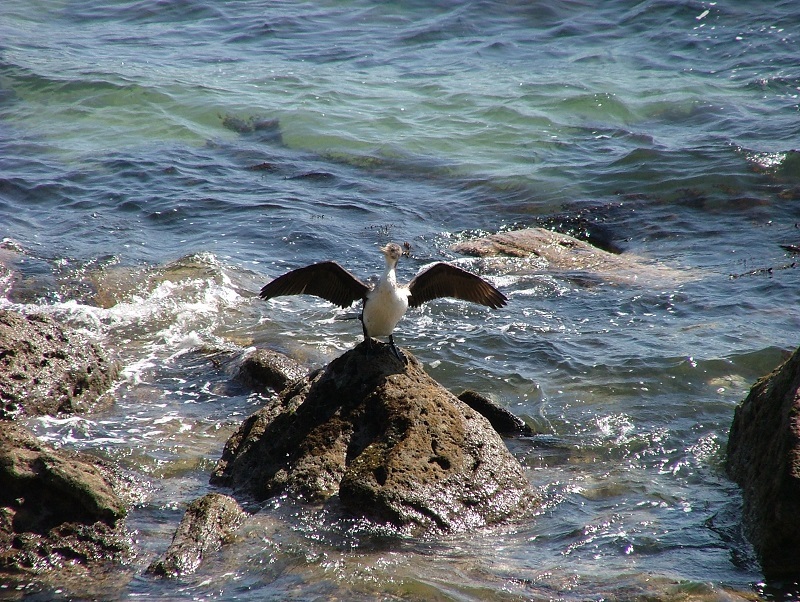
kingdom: Animalia
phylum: Chordata
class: Aves
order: Suliformes
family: Phalacrocoracidae
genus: Phalacrocorax
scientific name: Phalacrocorax varius
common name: Pied cormorant
